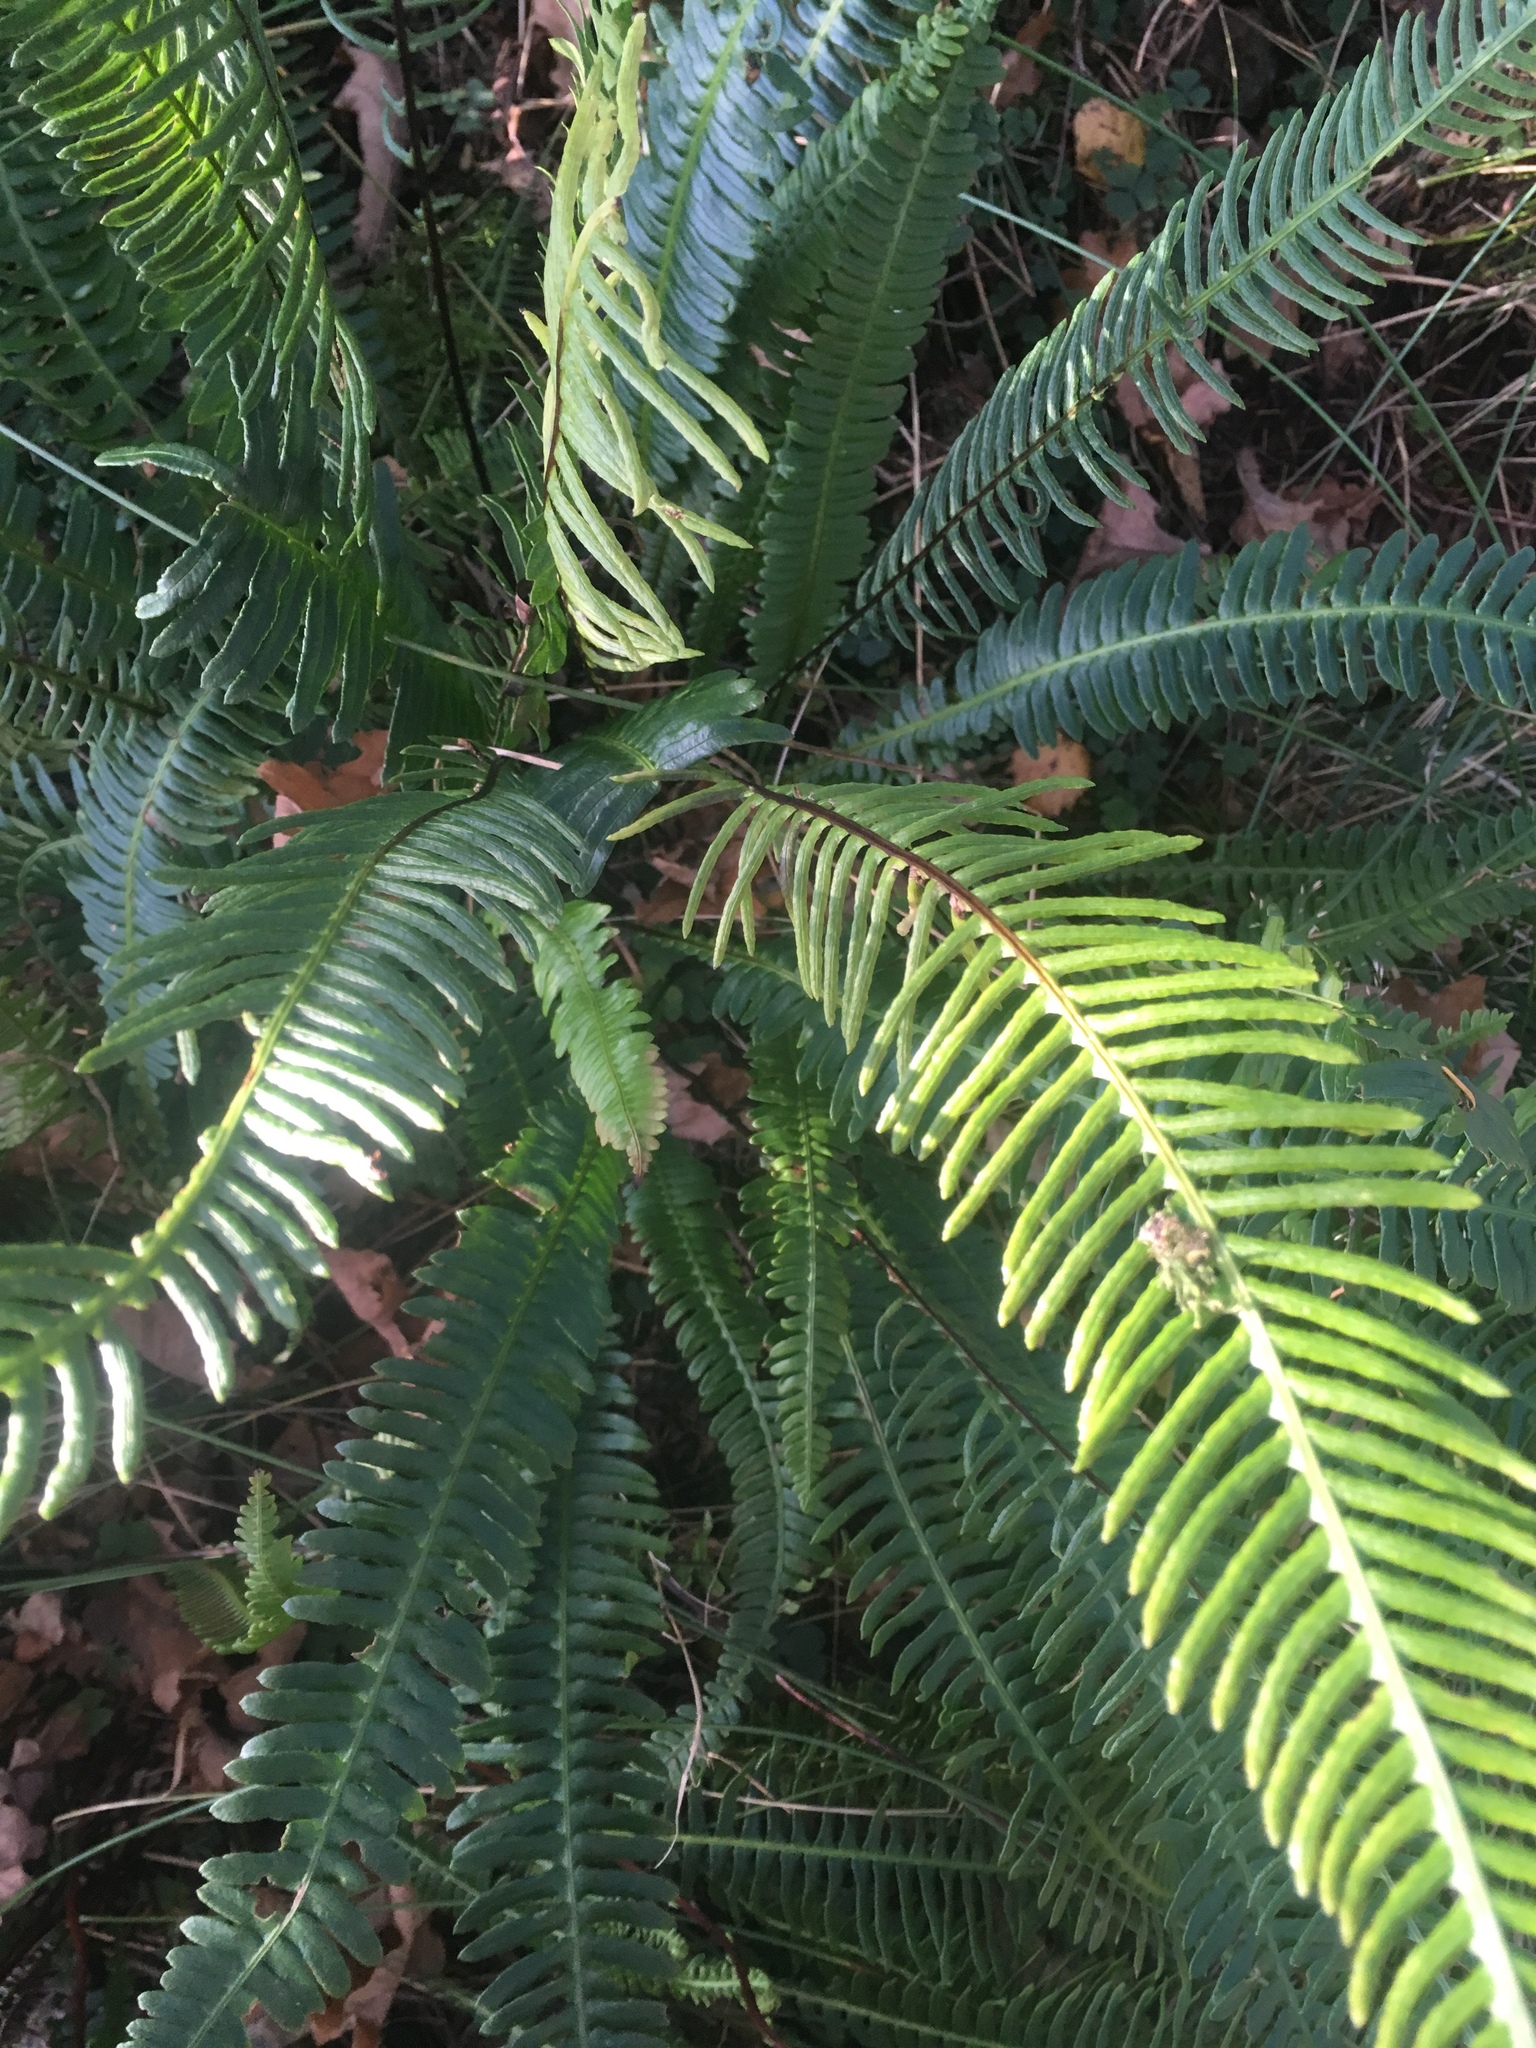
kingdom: Plantae
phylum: Tracheophyta
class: Polypodiopsida
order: Polypodiales
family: Blechnaceae
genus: Struthiopteris
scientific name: Struthiopteris spicant
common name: Deer fern
